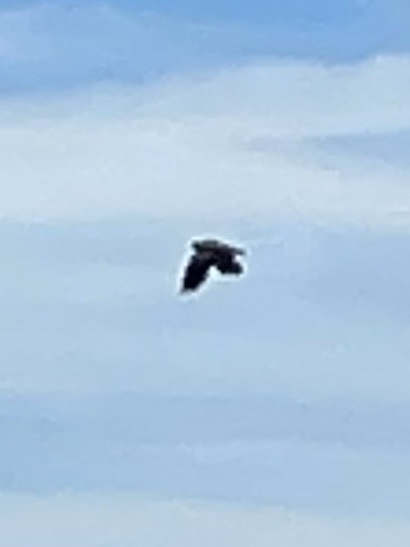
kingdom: Animalia
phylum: Chordata
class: Aves
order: Charadriiformes
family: Charadriidae
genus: Vanellus
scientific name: Vanellus vanellus
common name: Northern lapwing
